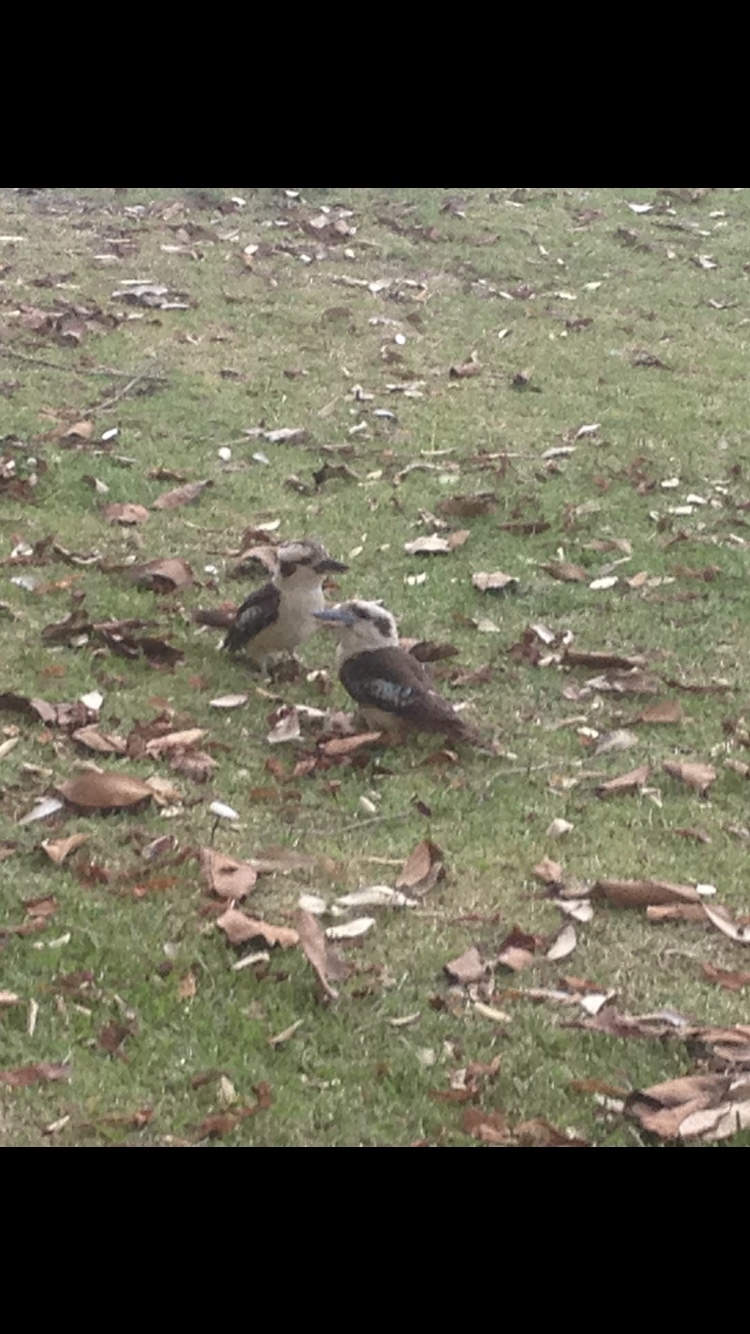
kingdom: Animalia
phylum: Chordata
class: Aves
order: Coraciiformes
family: Alcedinidae
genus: Dacelo
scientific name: Dacelo novaeguineae
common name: Laughing kookaburra
